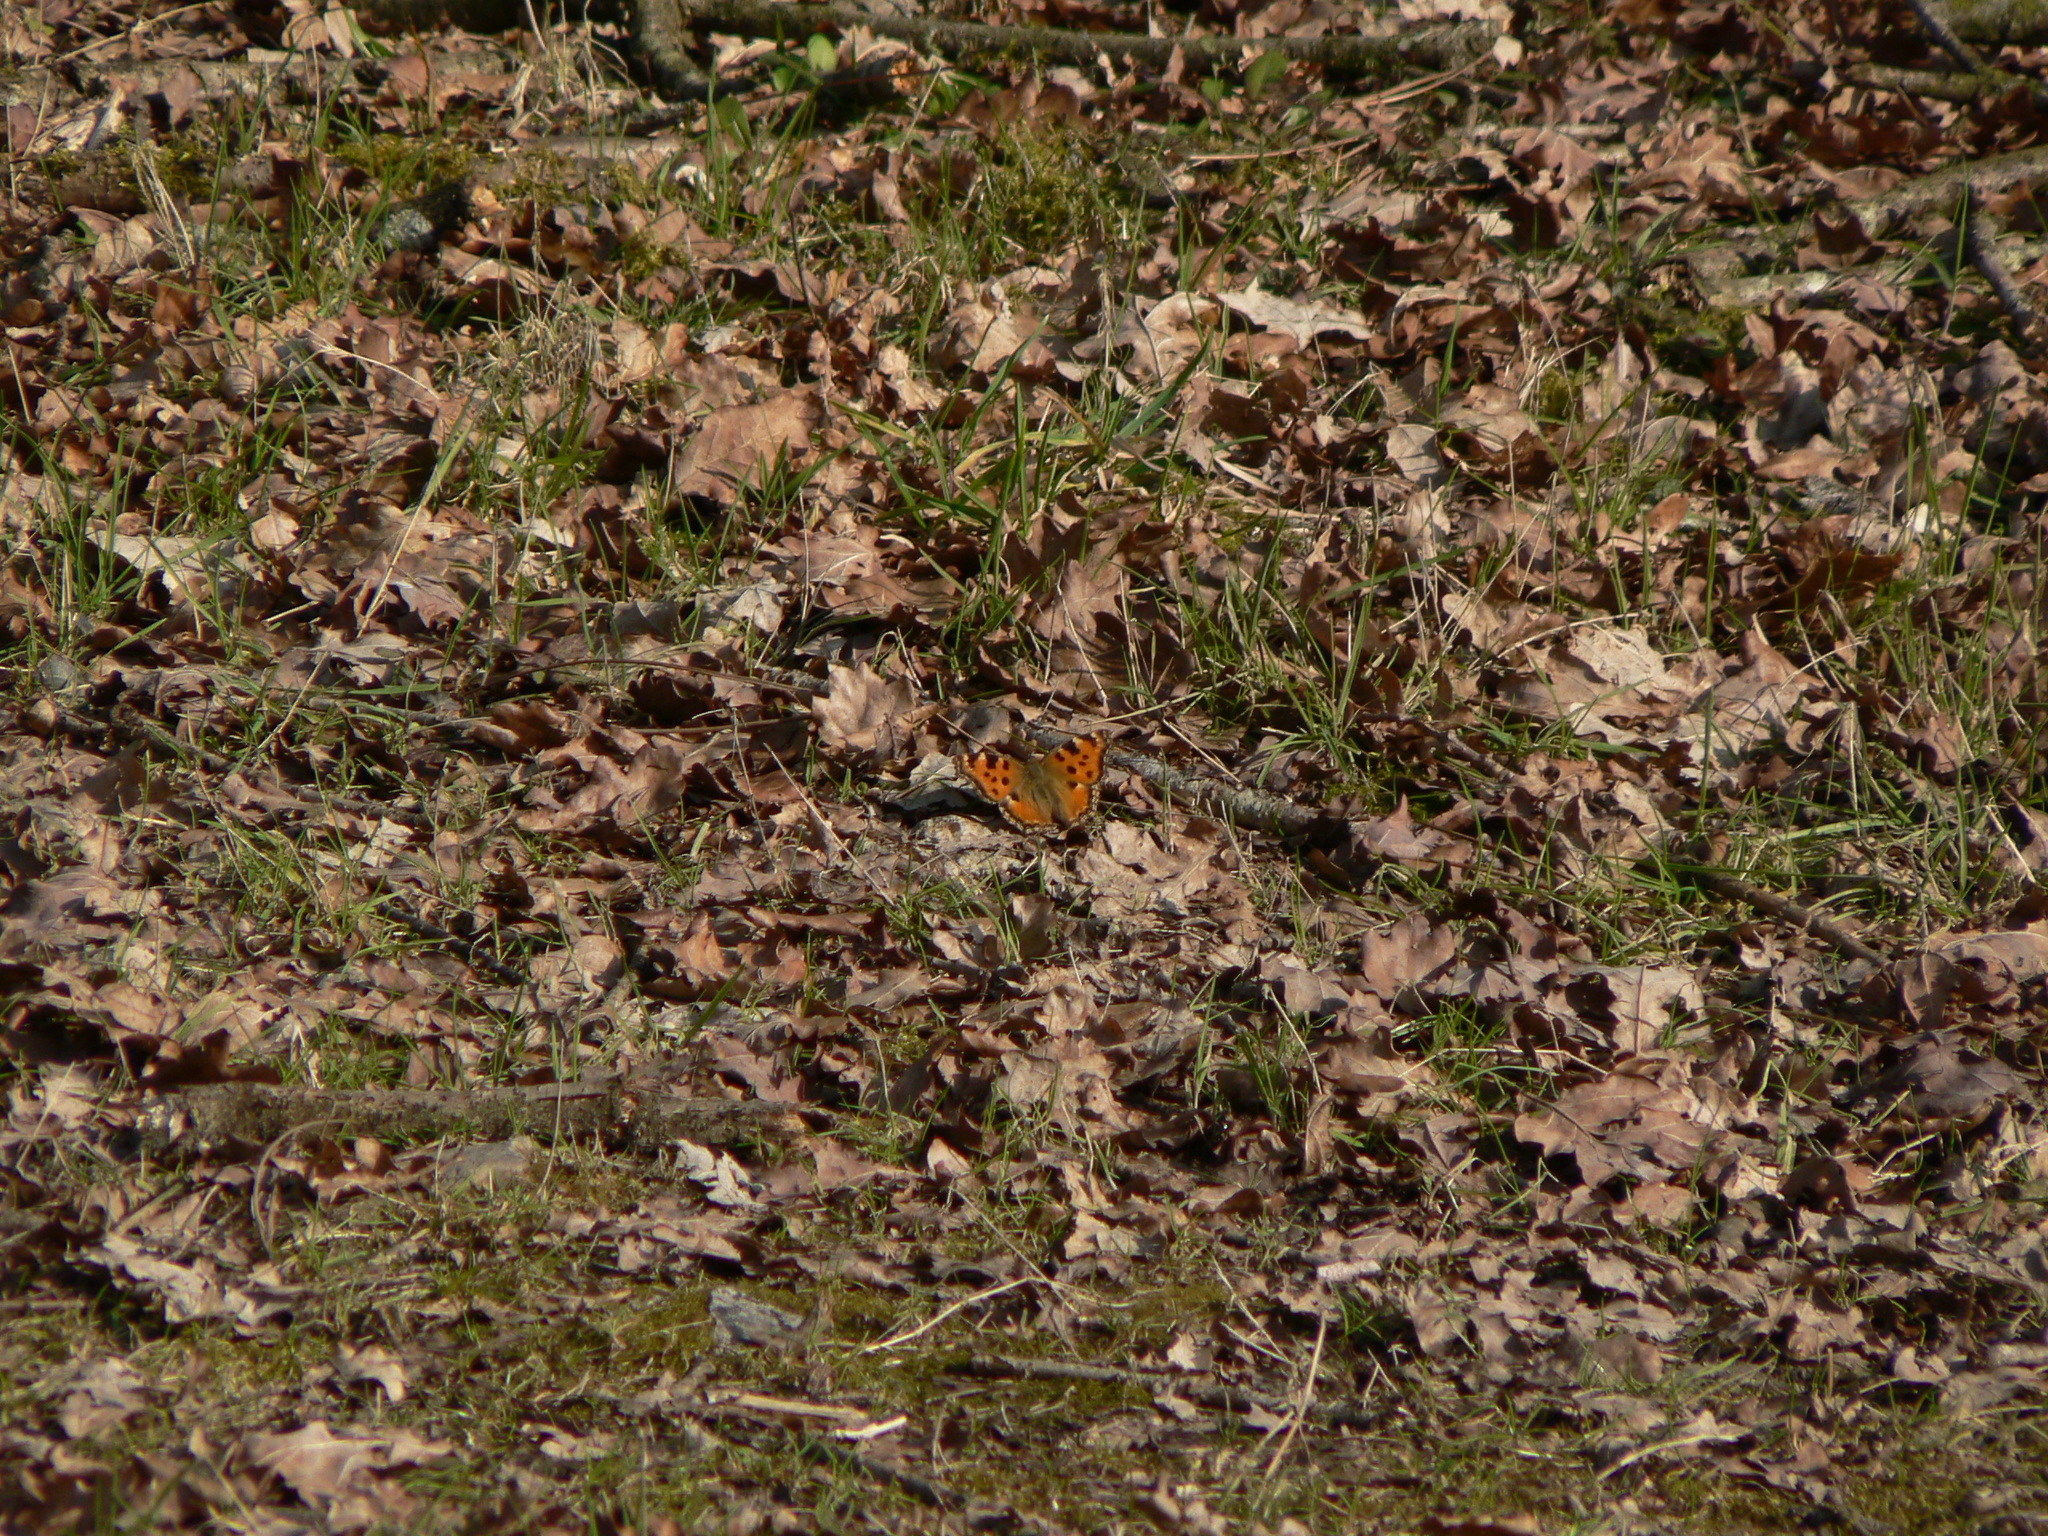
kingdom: Animalia
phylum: Arthropoda
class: Insecta
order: Lepidoptera
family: Nymphalidae
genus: Nymphalis
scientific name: Nymphalis polychloros
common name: Large tortoiseshell
